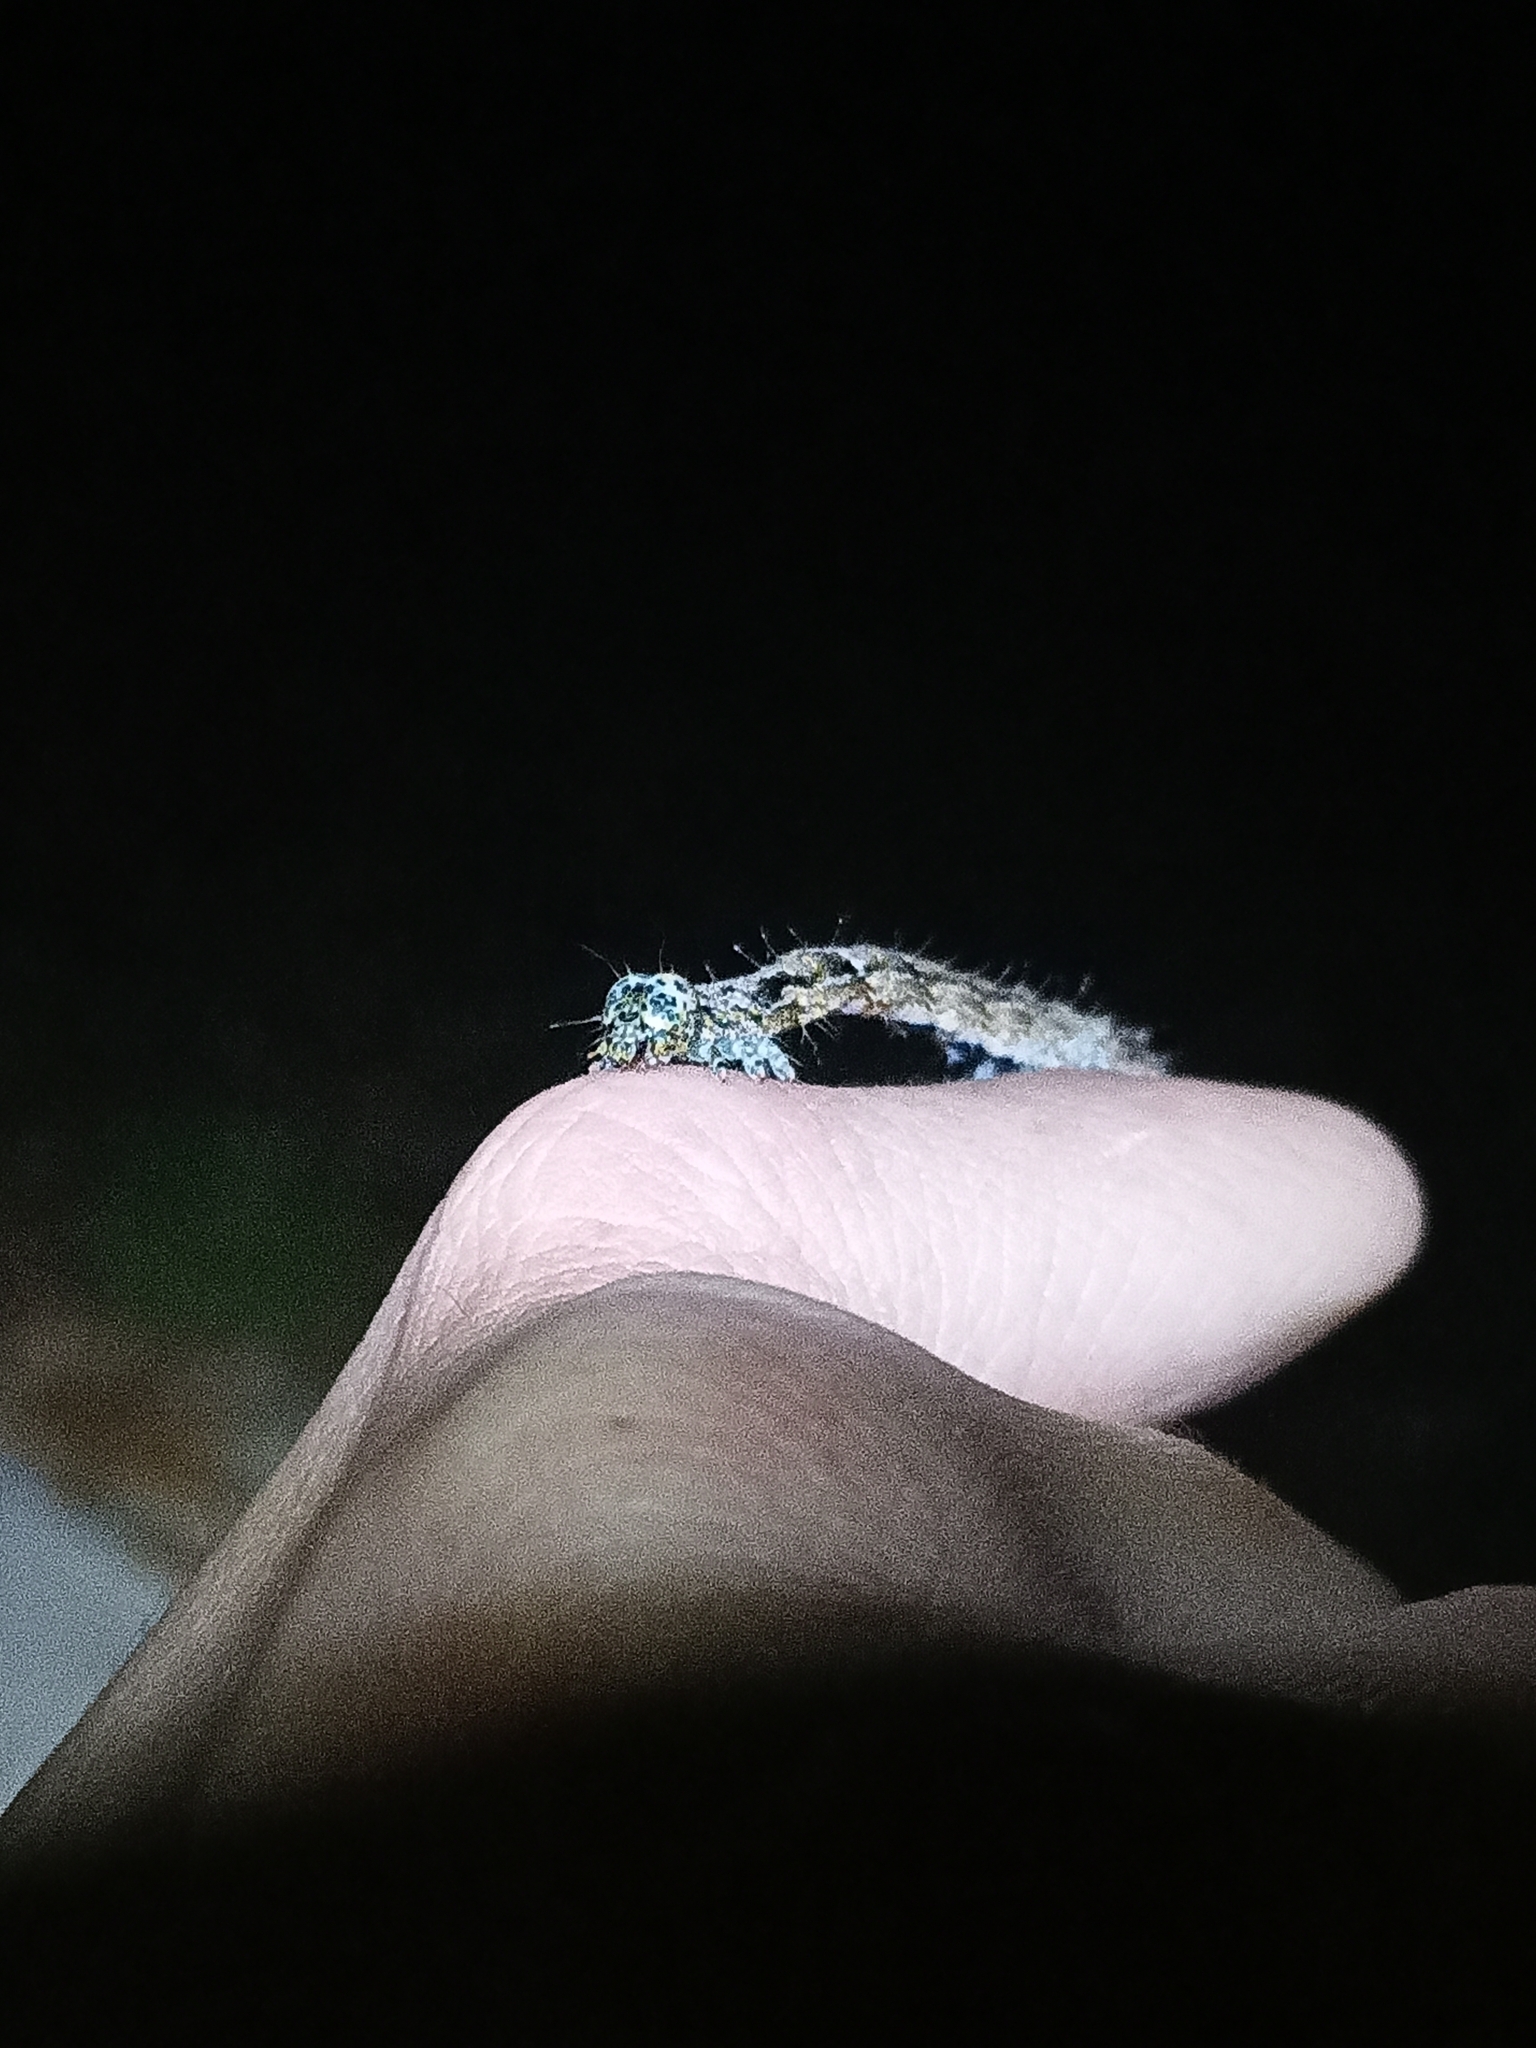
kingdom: Animalia
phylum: Arthropoda
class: Insecta
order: Lepidoptera
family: Erebidae
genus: Metria
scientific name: Metria amella
